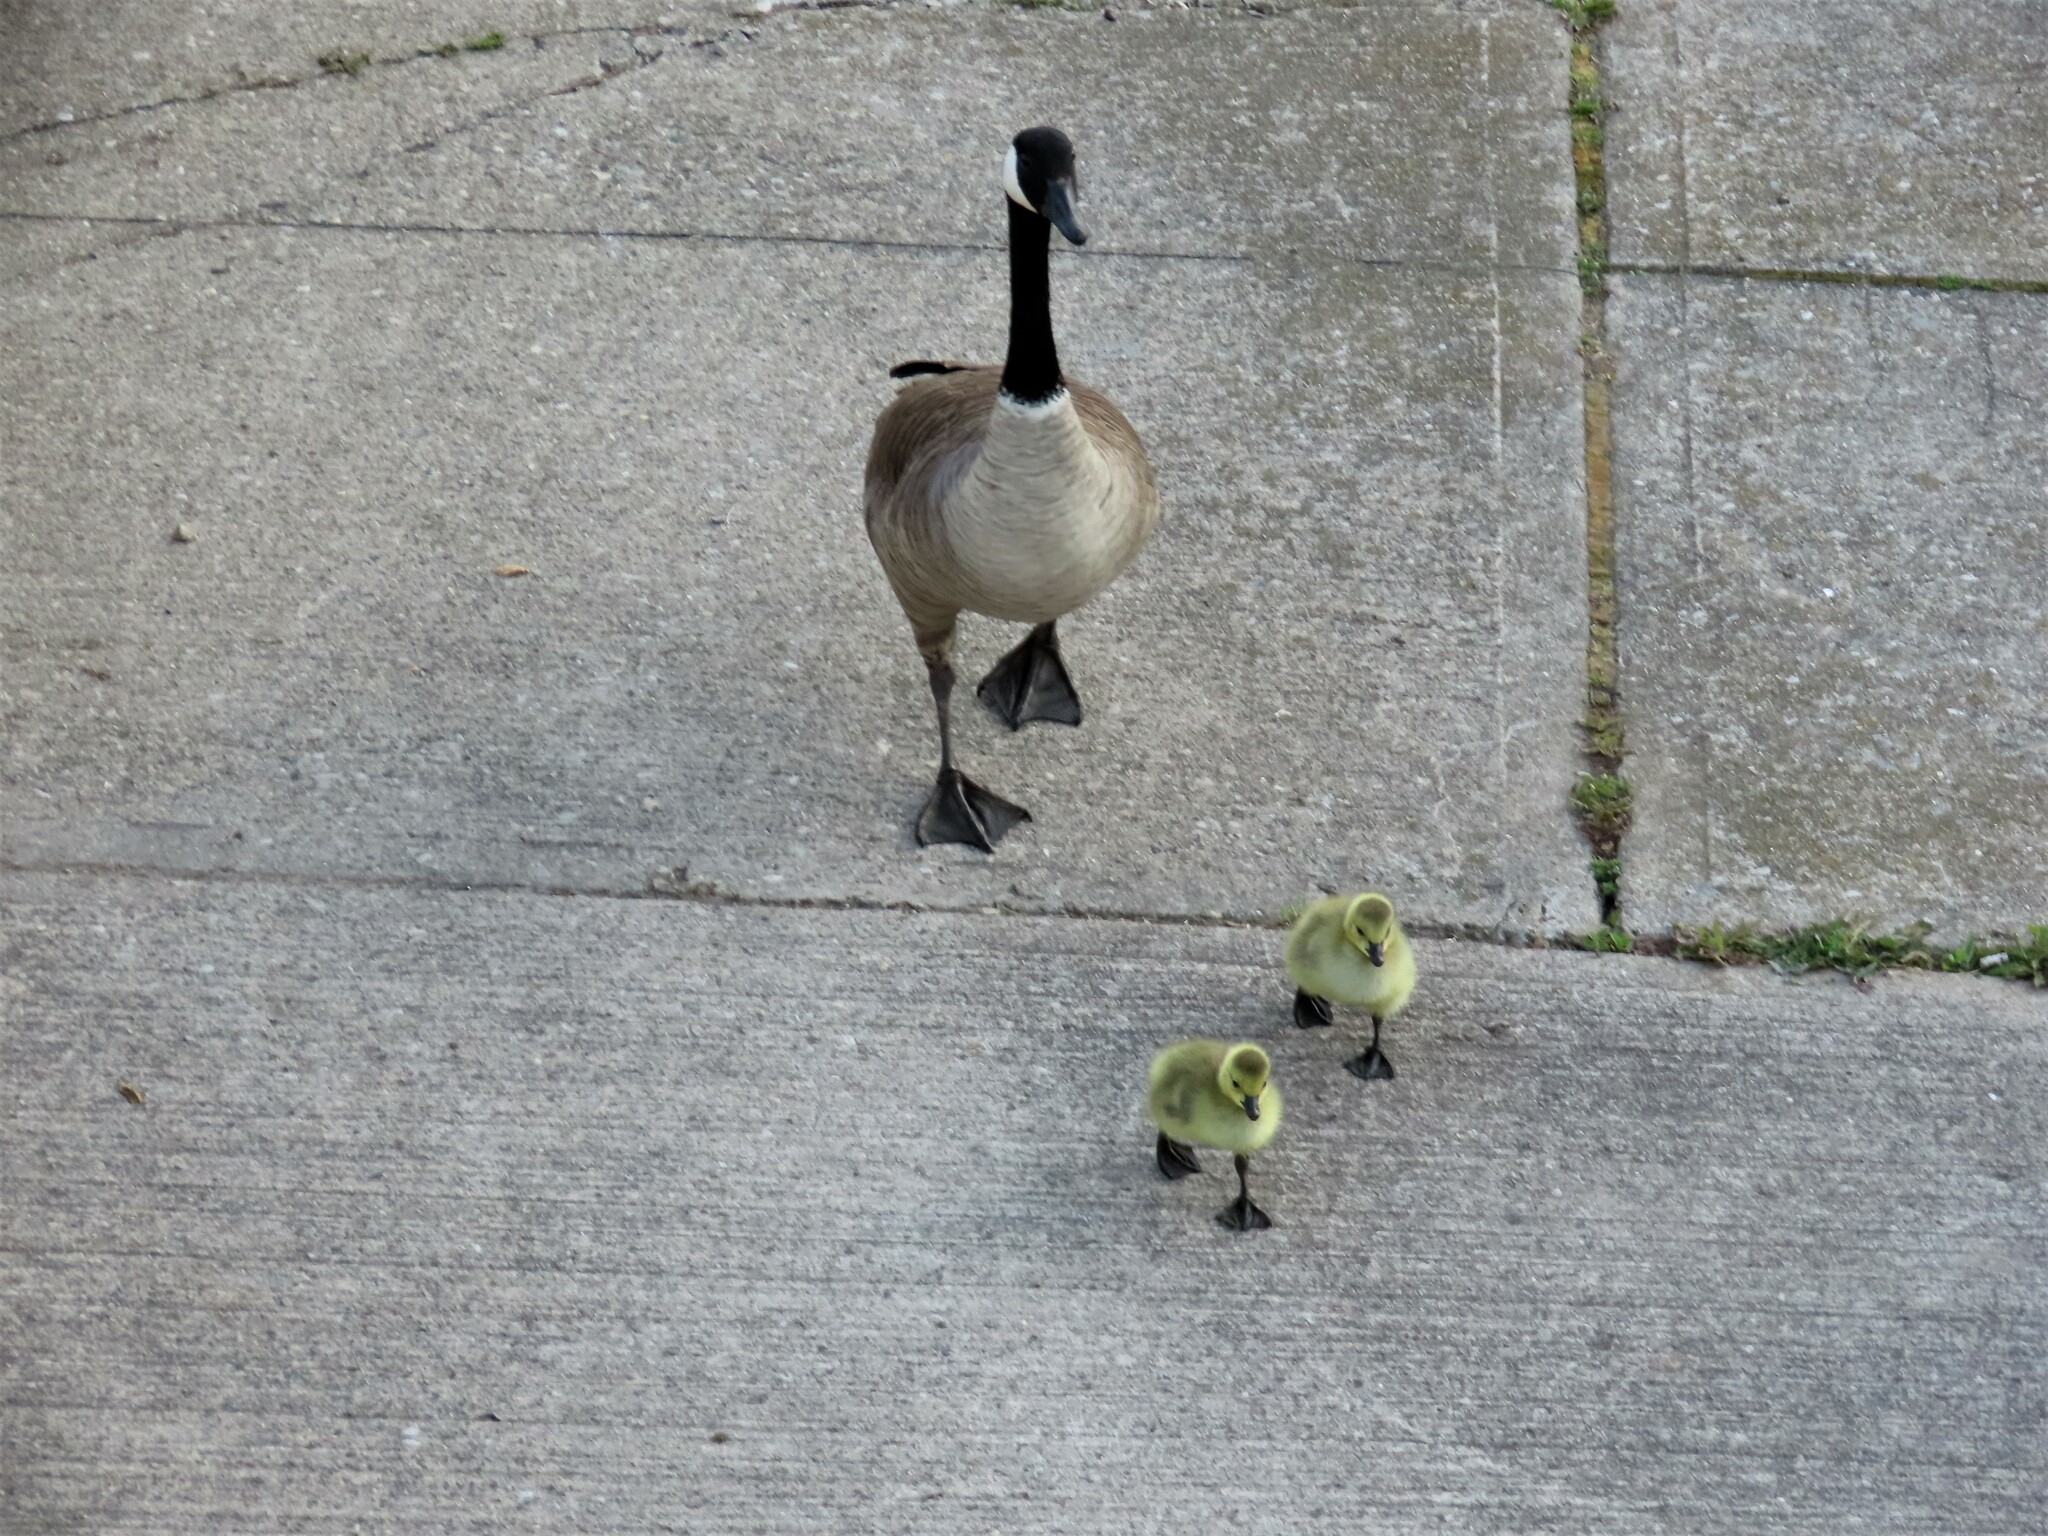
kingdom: Animalia
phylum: Chordata
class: Aves
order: Anseriformes
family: Anatidae
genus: Branta
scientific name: Branta canadensis
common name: Canada goose
